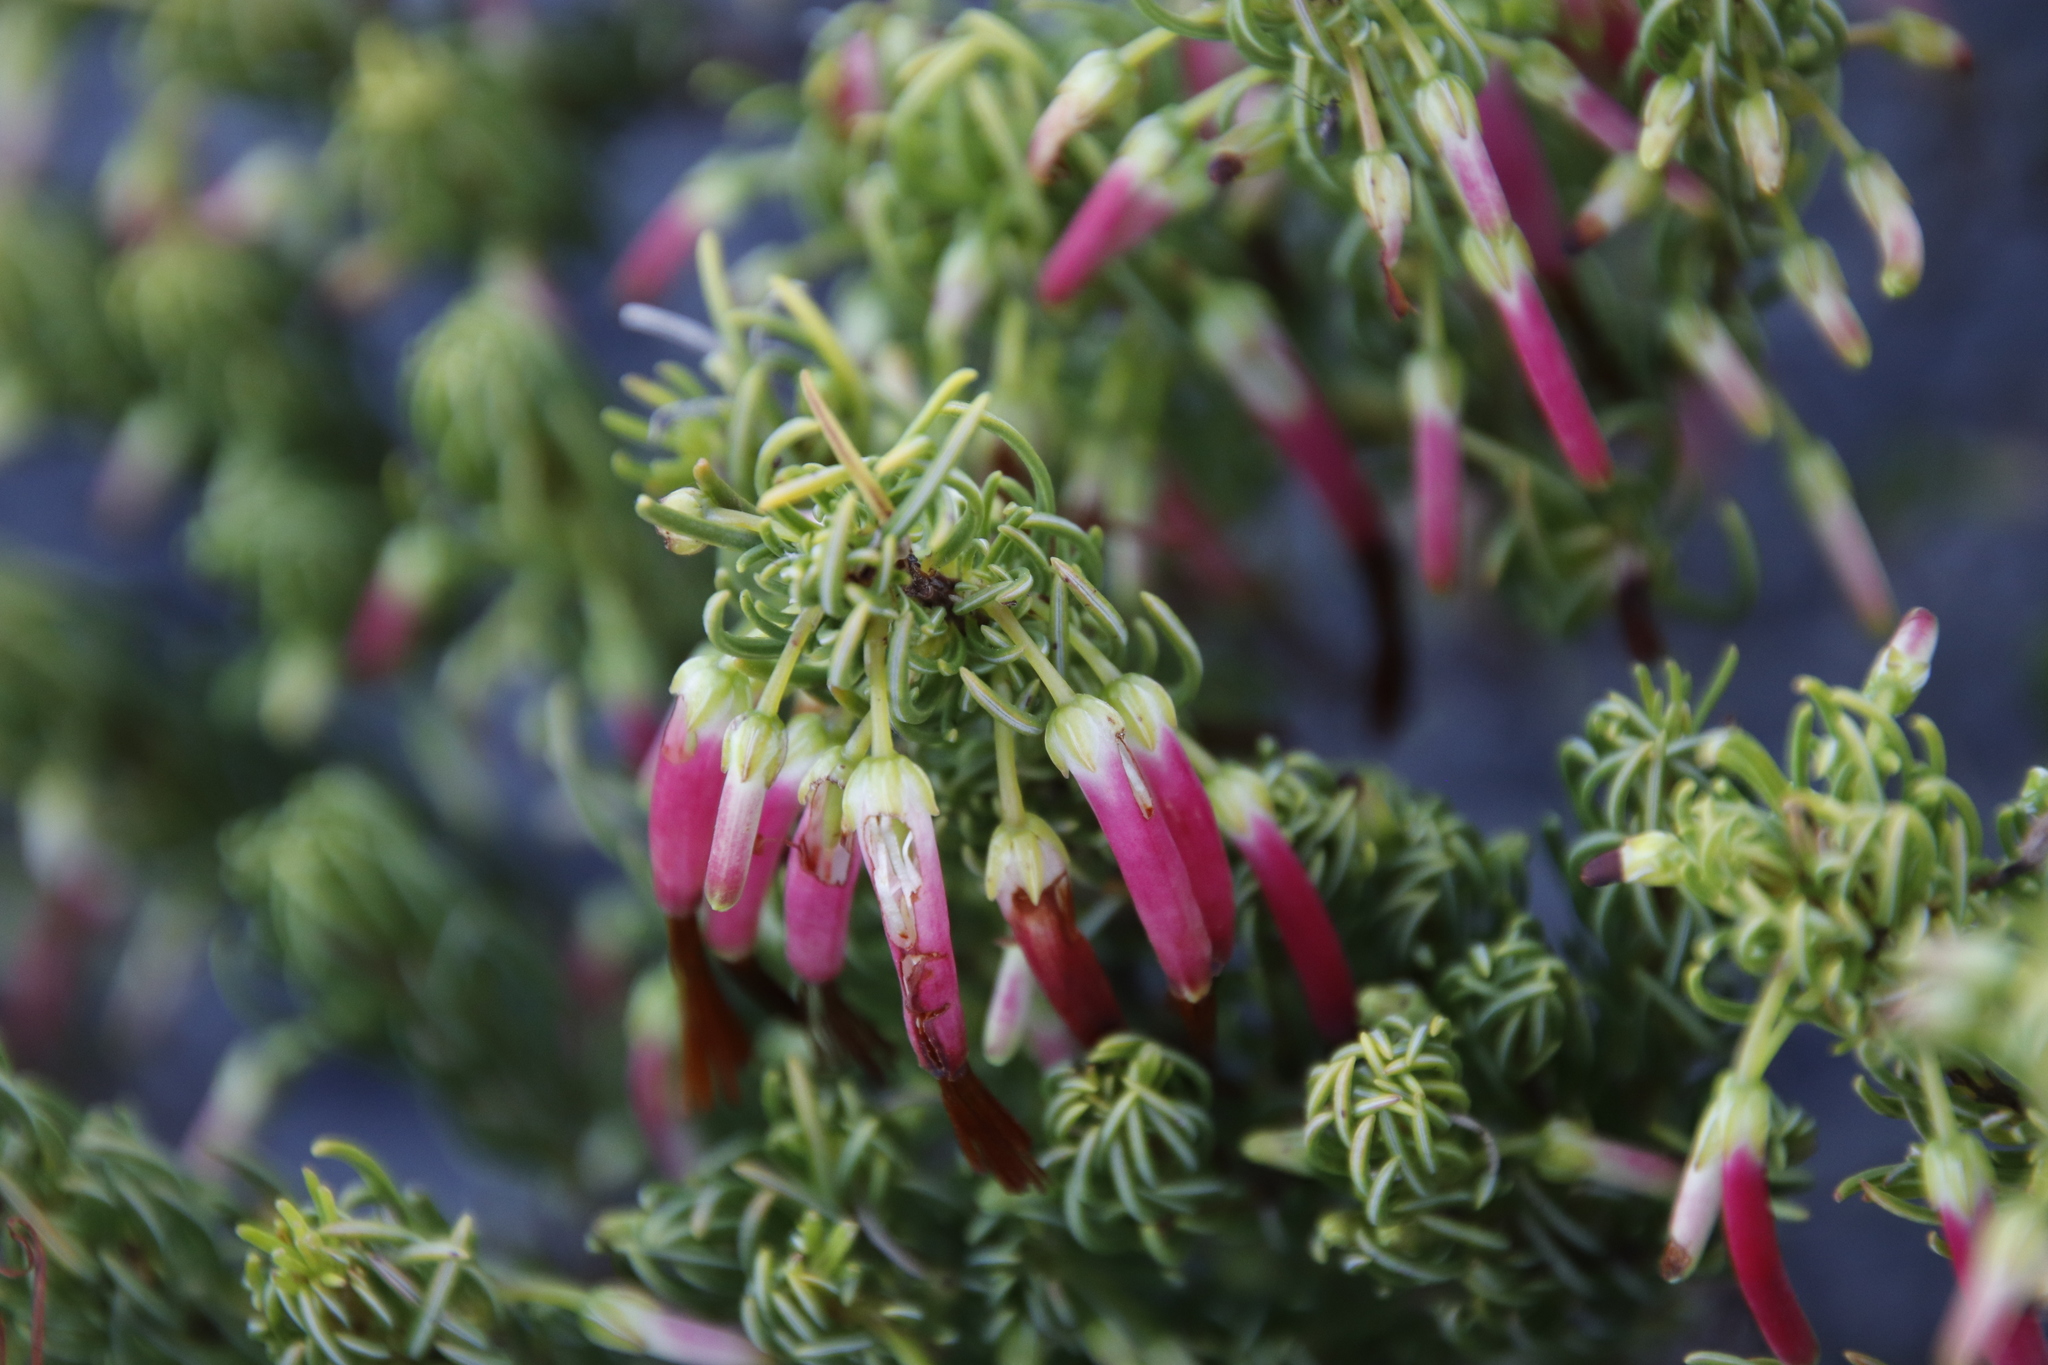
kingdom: Plantae
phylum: Tracheophyta
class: Magnoliopsida
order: Ericales
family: Ericaceae
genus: Erica
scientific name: Erica plukenetii
